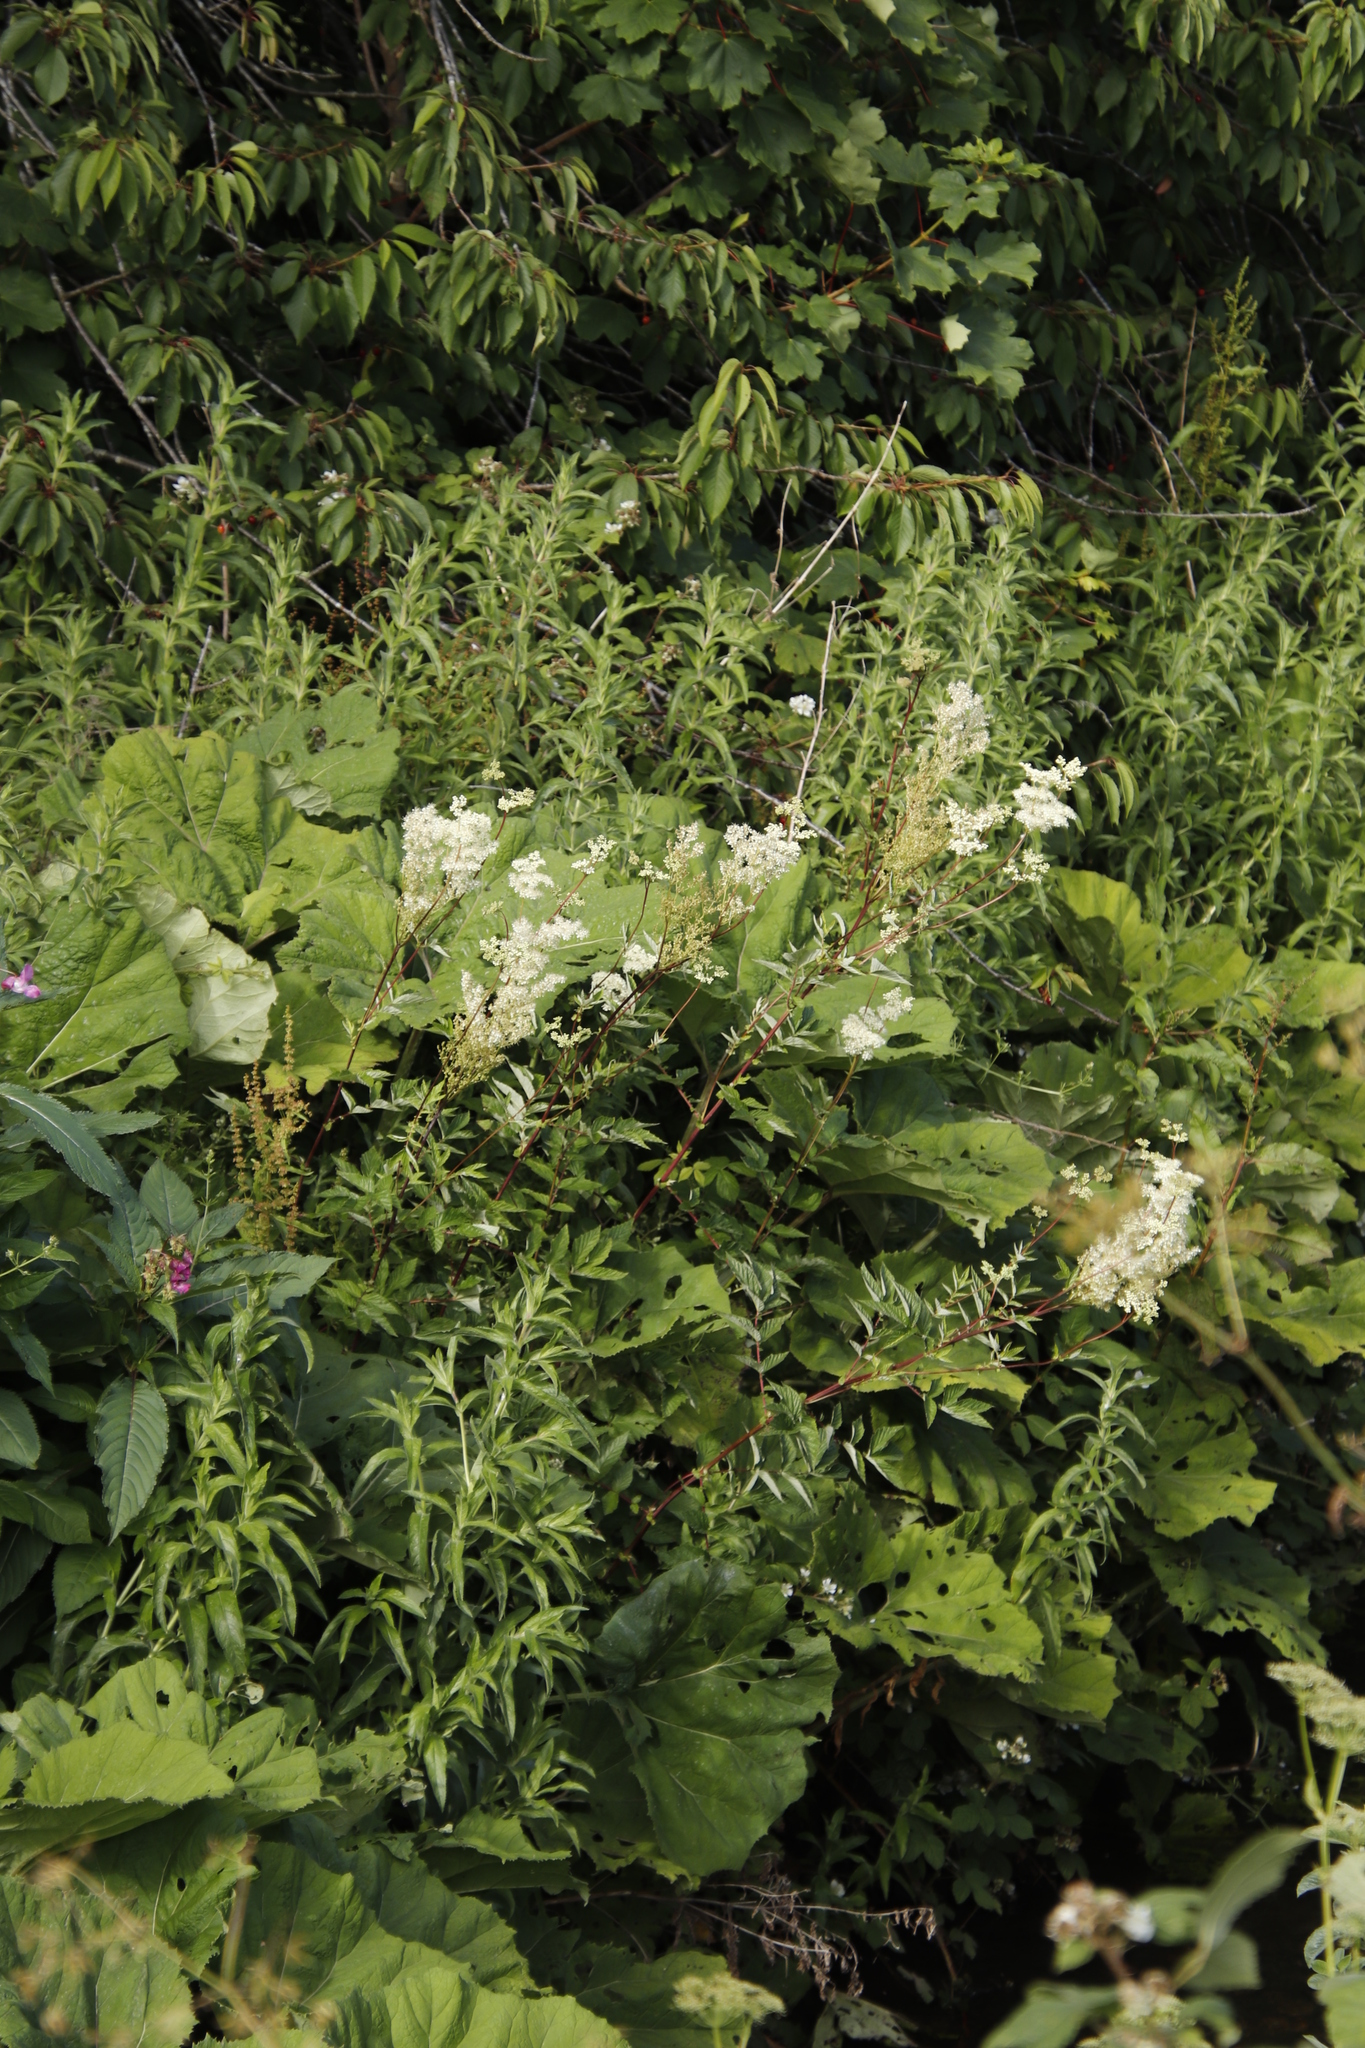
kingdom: Plantae
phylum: Tracheophyta
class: Magnoliopsida
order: Rosales
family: Rosaceae
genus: Filipendula
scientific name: Filipendula ulmaria
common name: Meadowsweet
